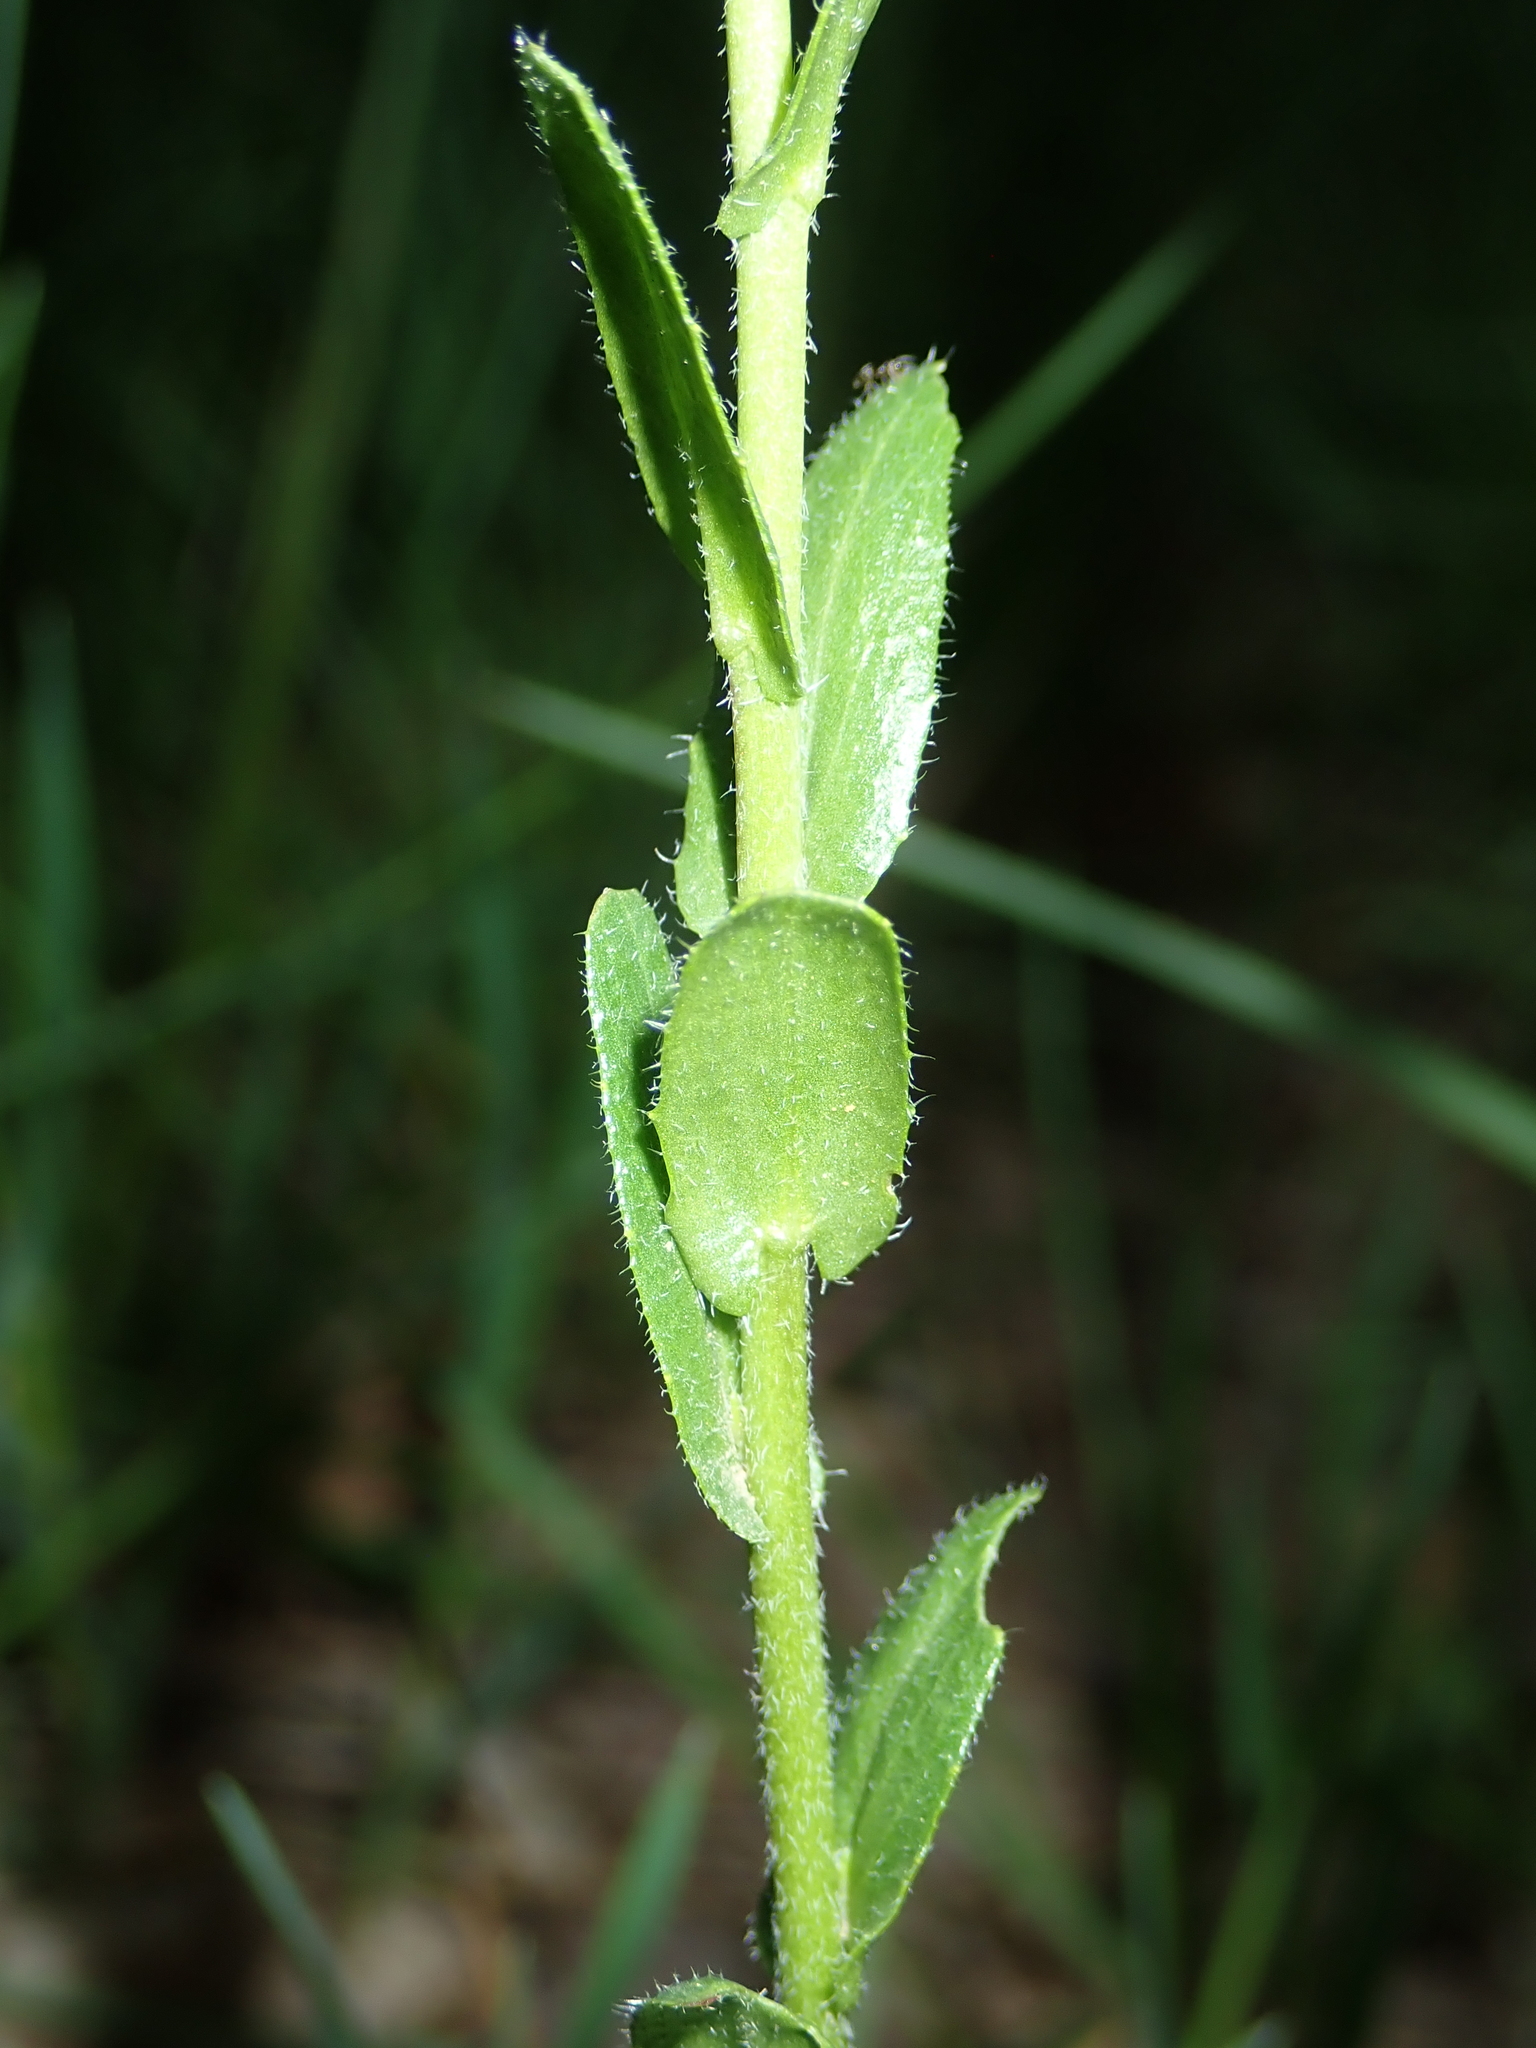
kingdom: Plantae
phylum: Tracheophyta
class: Magnoliopsida
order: Brassicales
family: Brassicaceae
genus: Arabis
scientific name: Arabis hirsuta
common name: Hairy rock-cress
